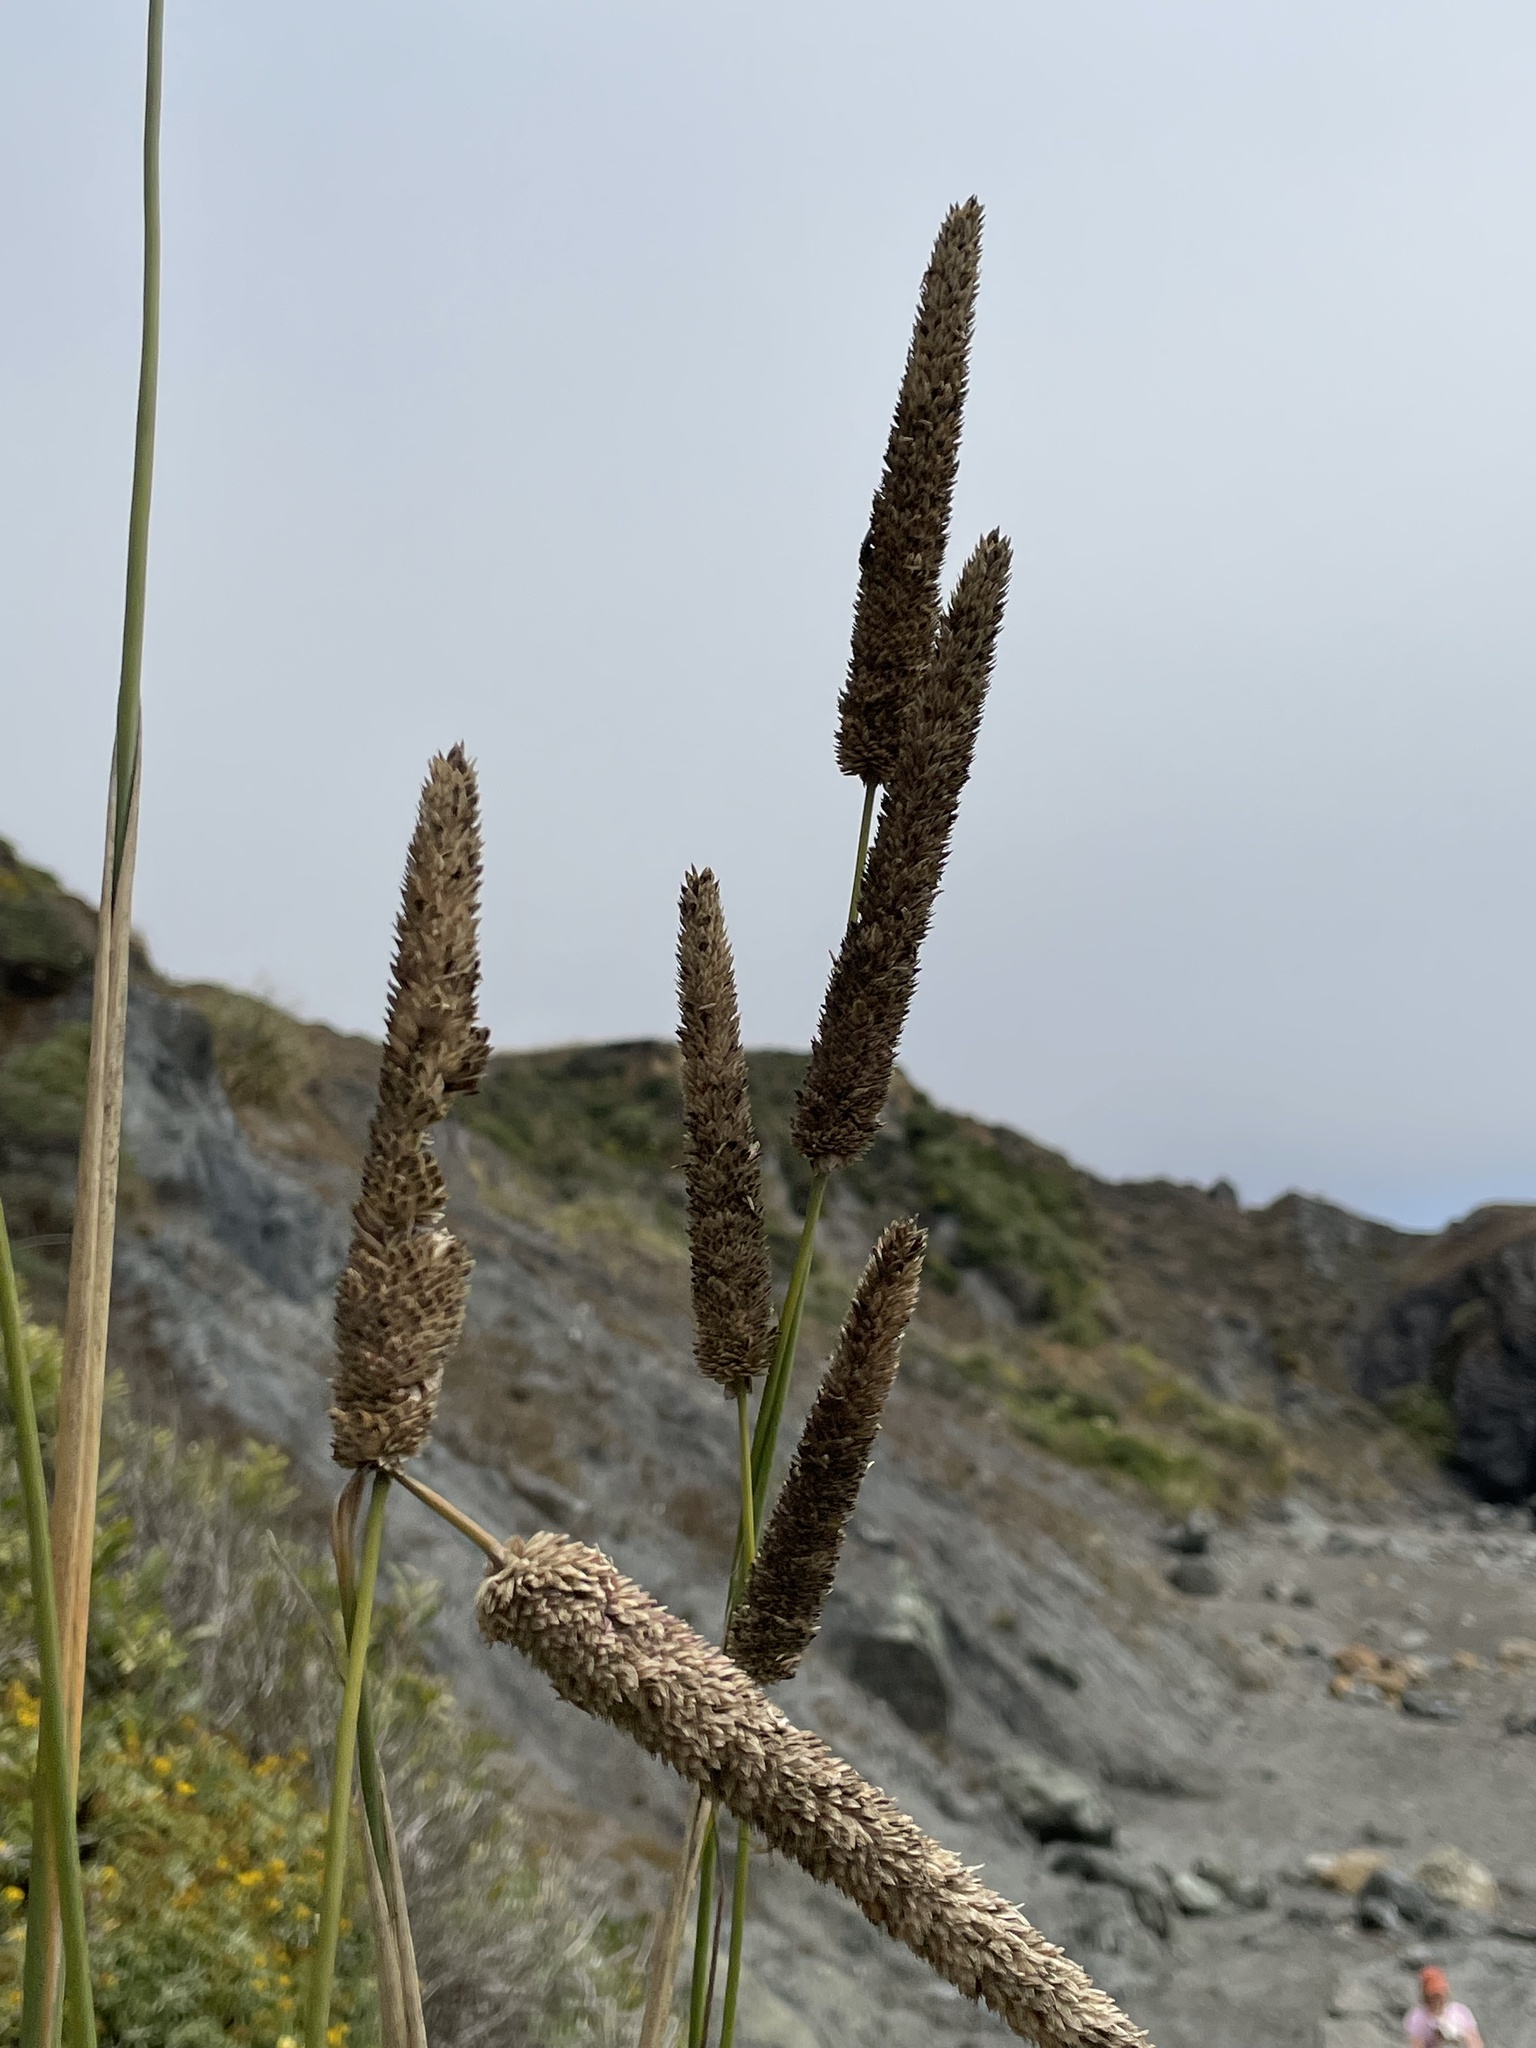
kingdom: Plantae
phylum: Tracheophyta
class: Liliopsida
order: Poales
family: Poaceae
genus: Phalaris
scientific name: Phalaris aquatica
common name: Bulbous canary-grass
